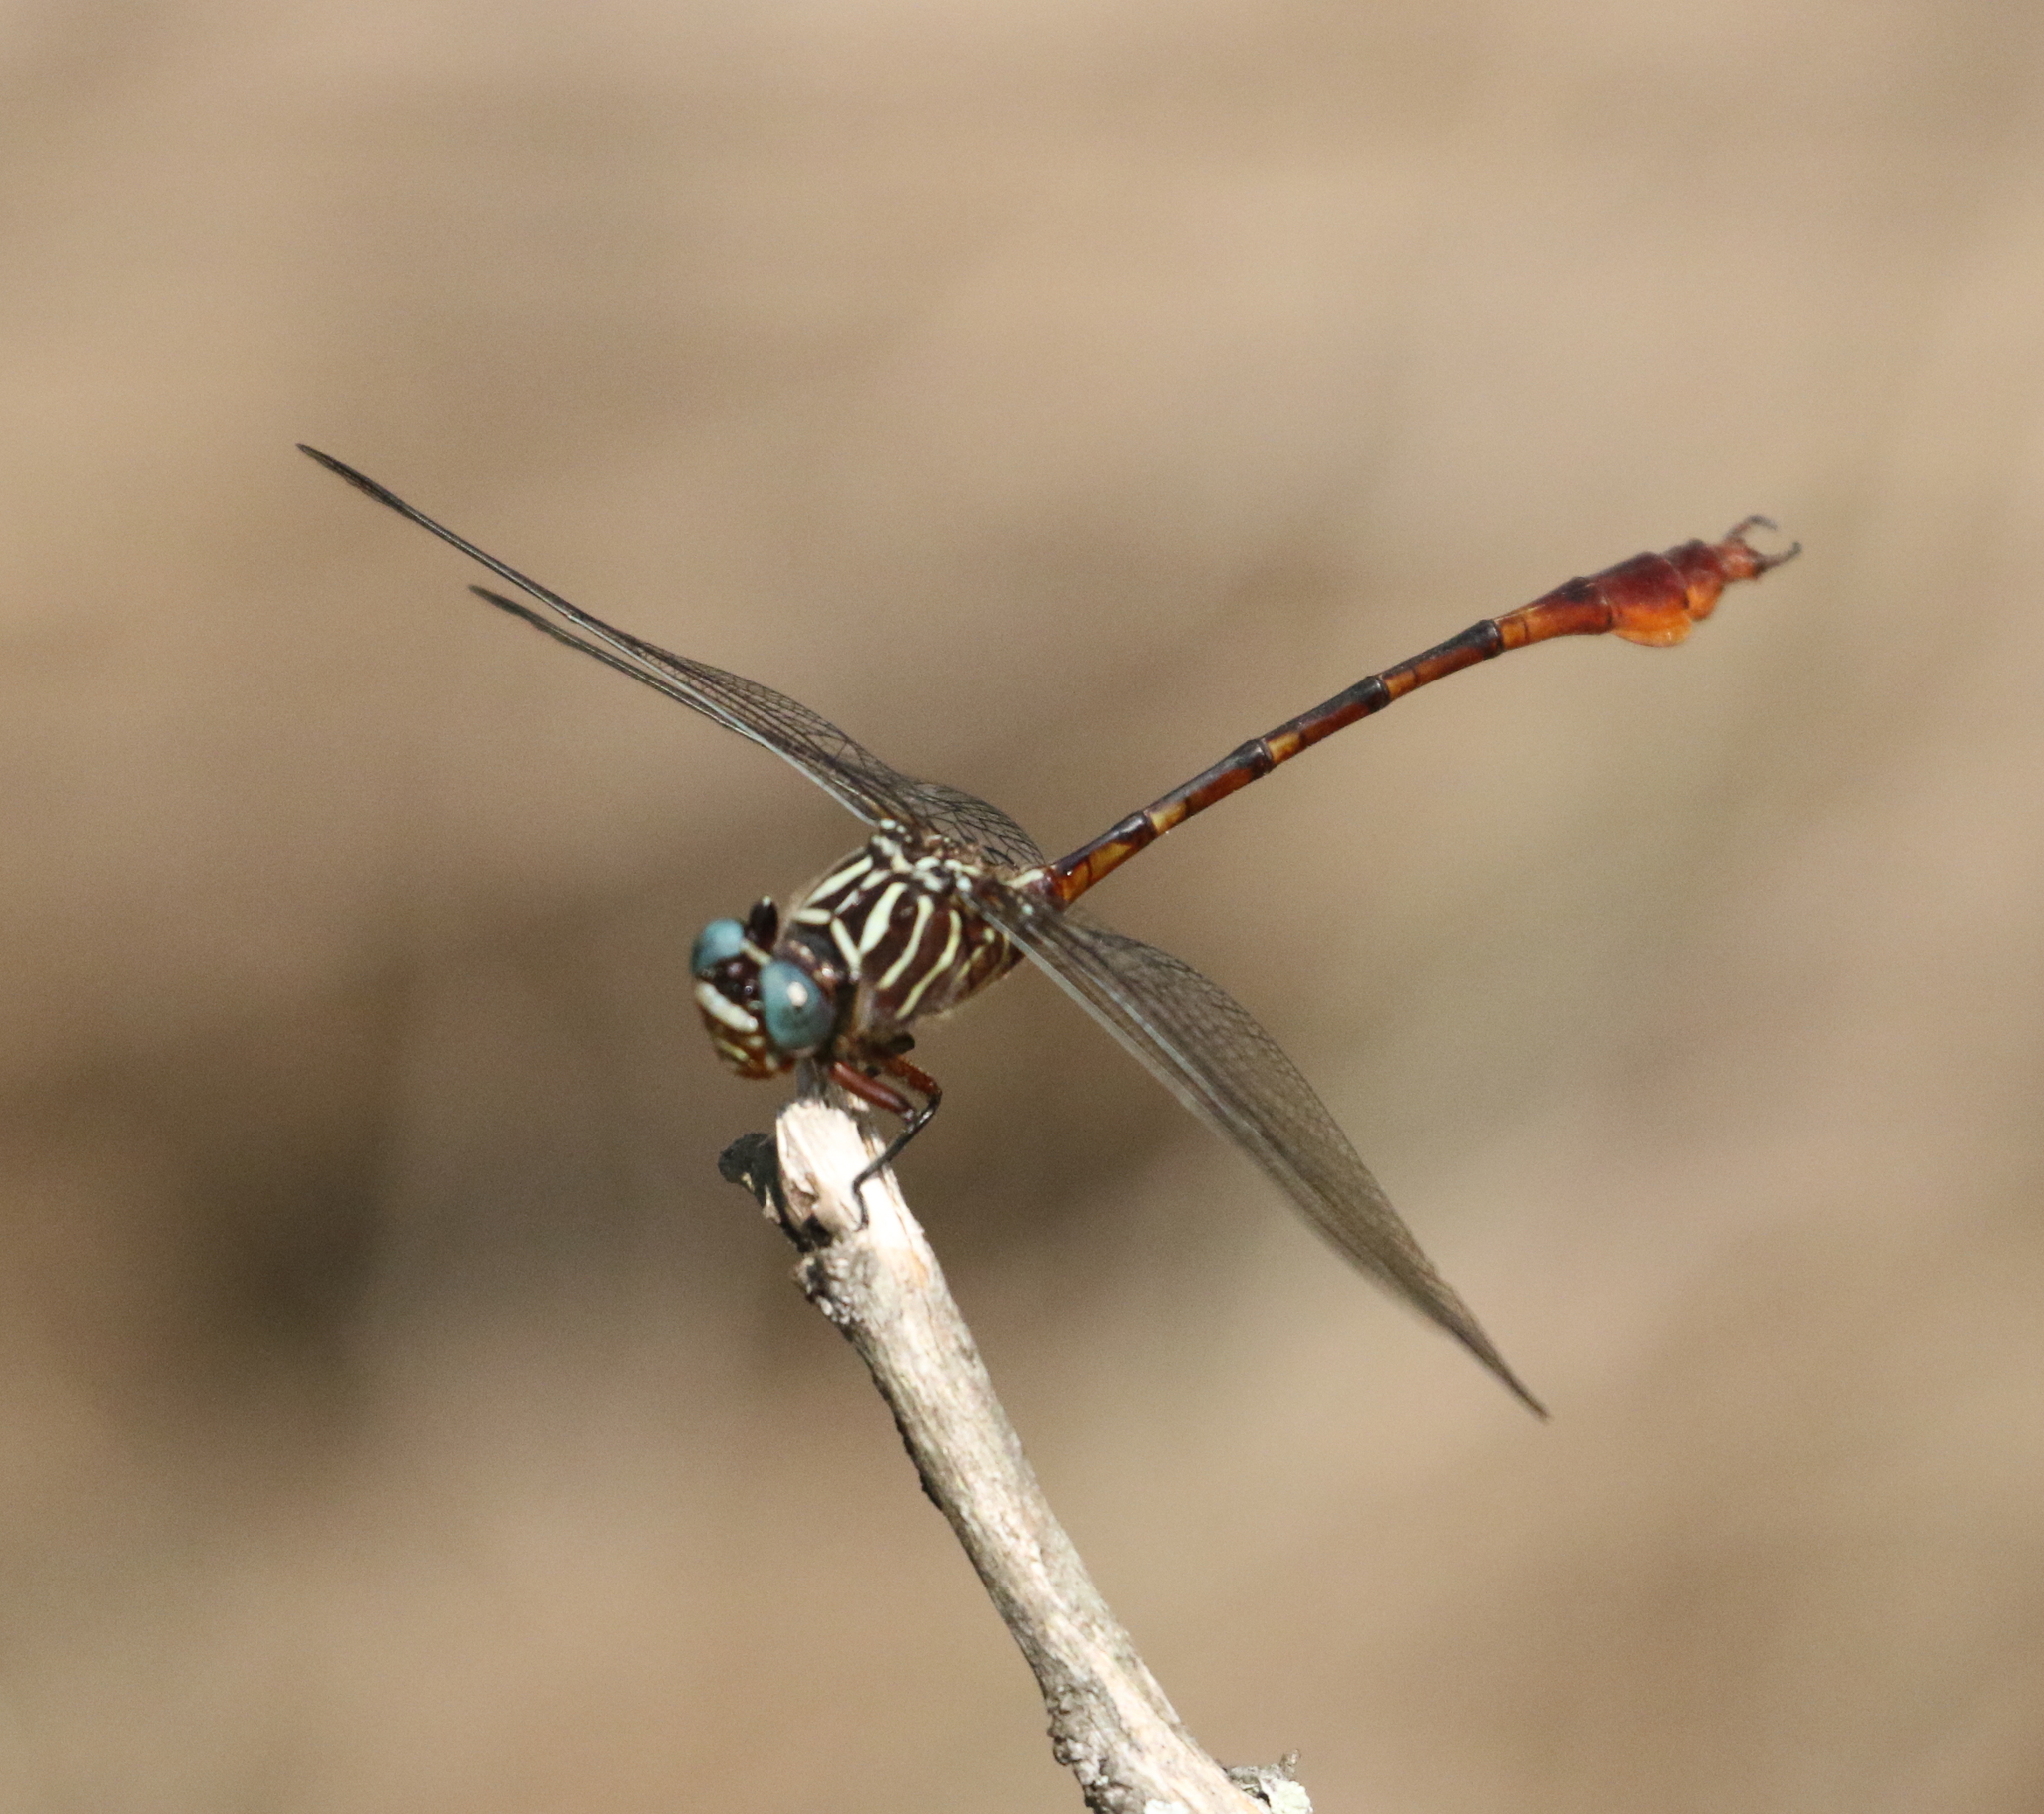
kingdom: Animalia
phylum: Arthropoda
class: Insecta
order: Odonata
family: Gomphidae
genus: Aphylla
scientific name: Aphylla protracta
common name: Narrow-striped forceptail
